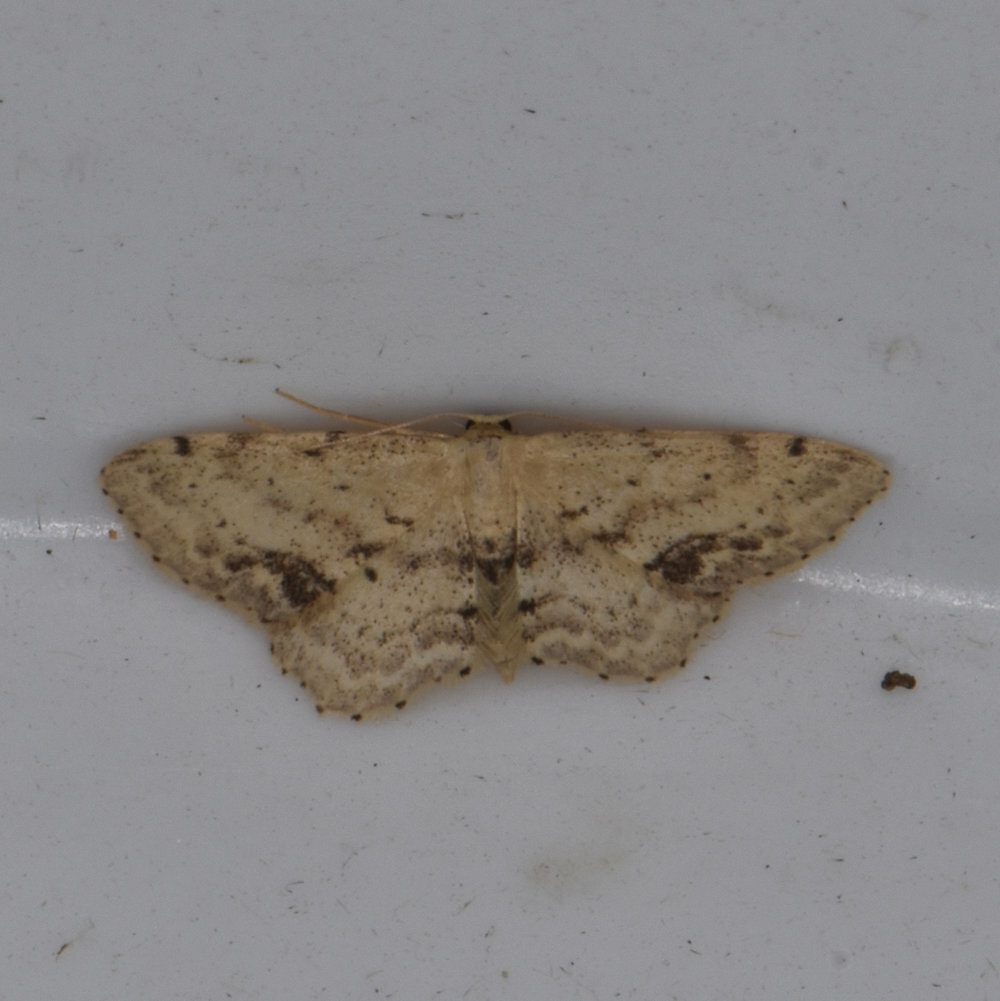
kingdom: Animalia
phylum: Arthropoda
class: Insecta
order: Lepidoptera
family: Geometridae
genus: Idaea
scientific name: Idaea dimidiata
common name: Single-dotted wave
